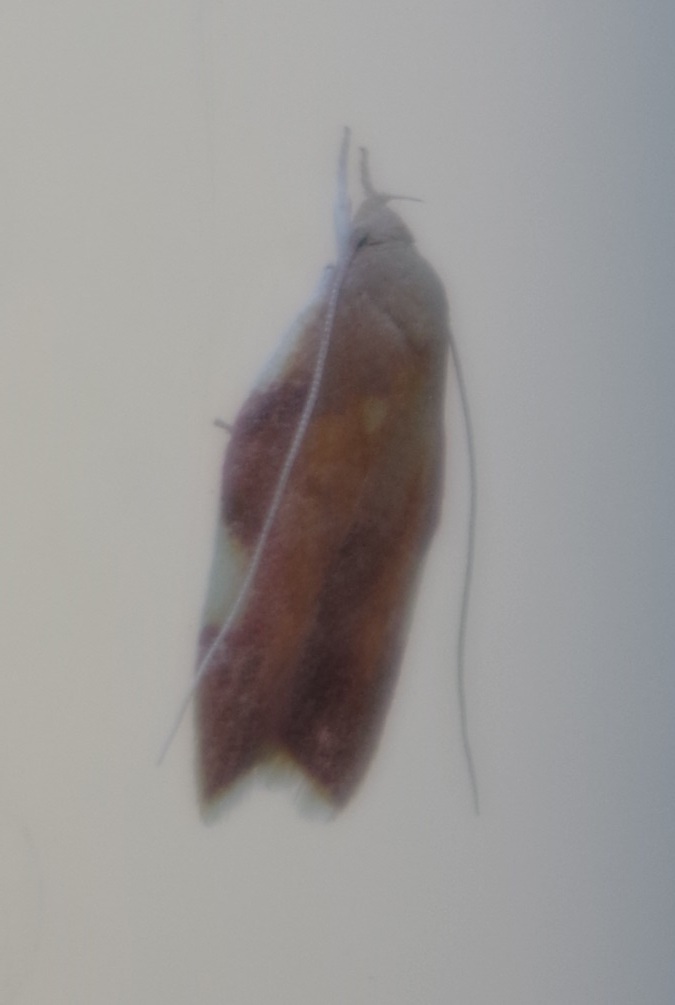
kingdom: Animalia
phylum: Arthropoda
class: Insecta
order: Lepidoptera
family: Peleopodidae
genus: Carcina
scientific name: Carcina quercana
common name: Moth
